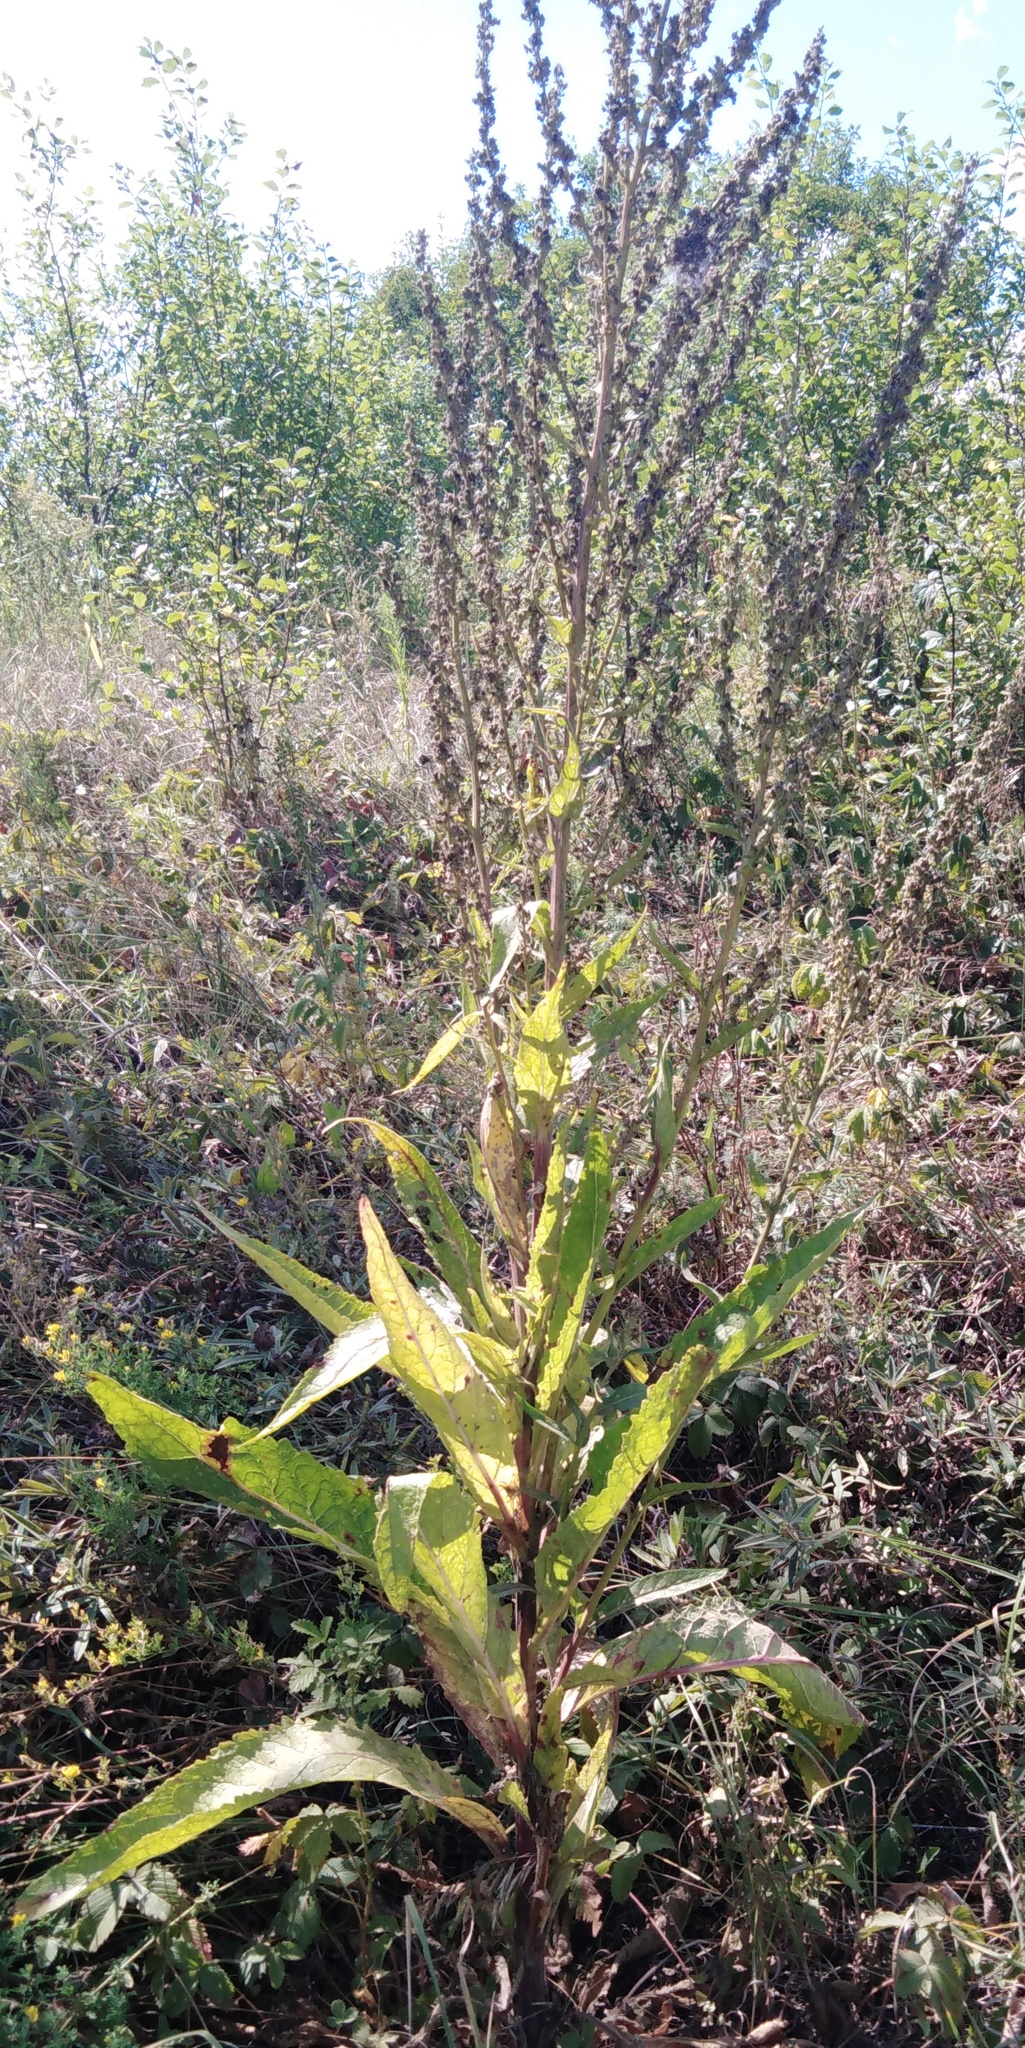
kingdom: Plantae
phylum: Tracheophyta
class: Magnoliopsida
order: Lamiales
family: Scrophulariaceae
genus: Verbascum
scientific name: Verbascum lychnitis
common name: White mullein
